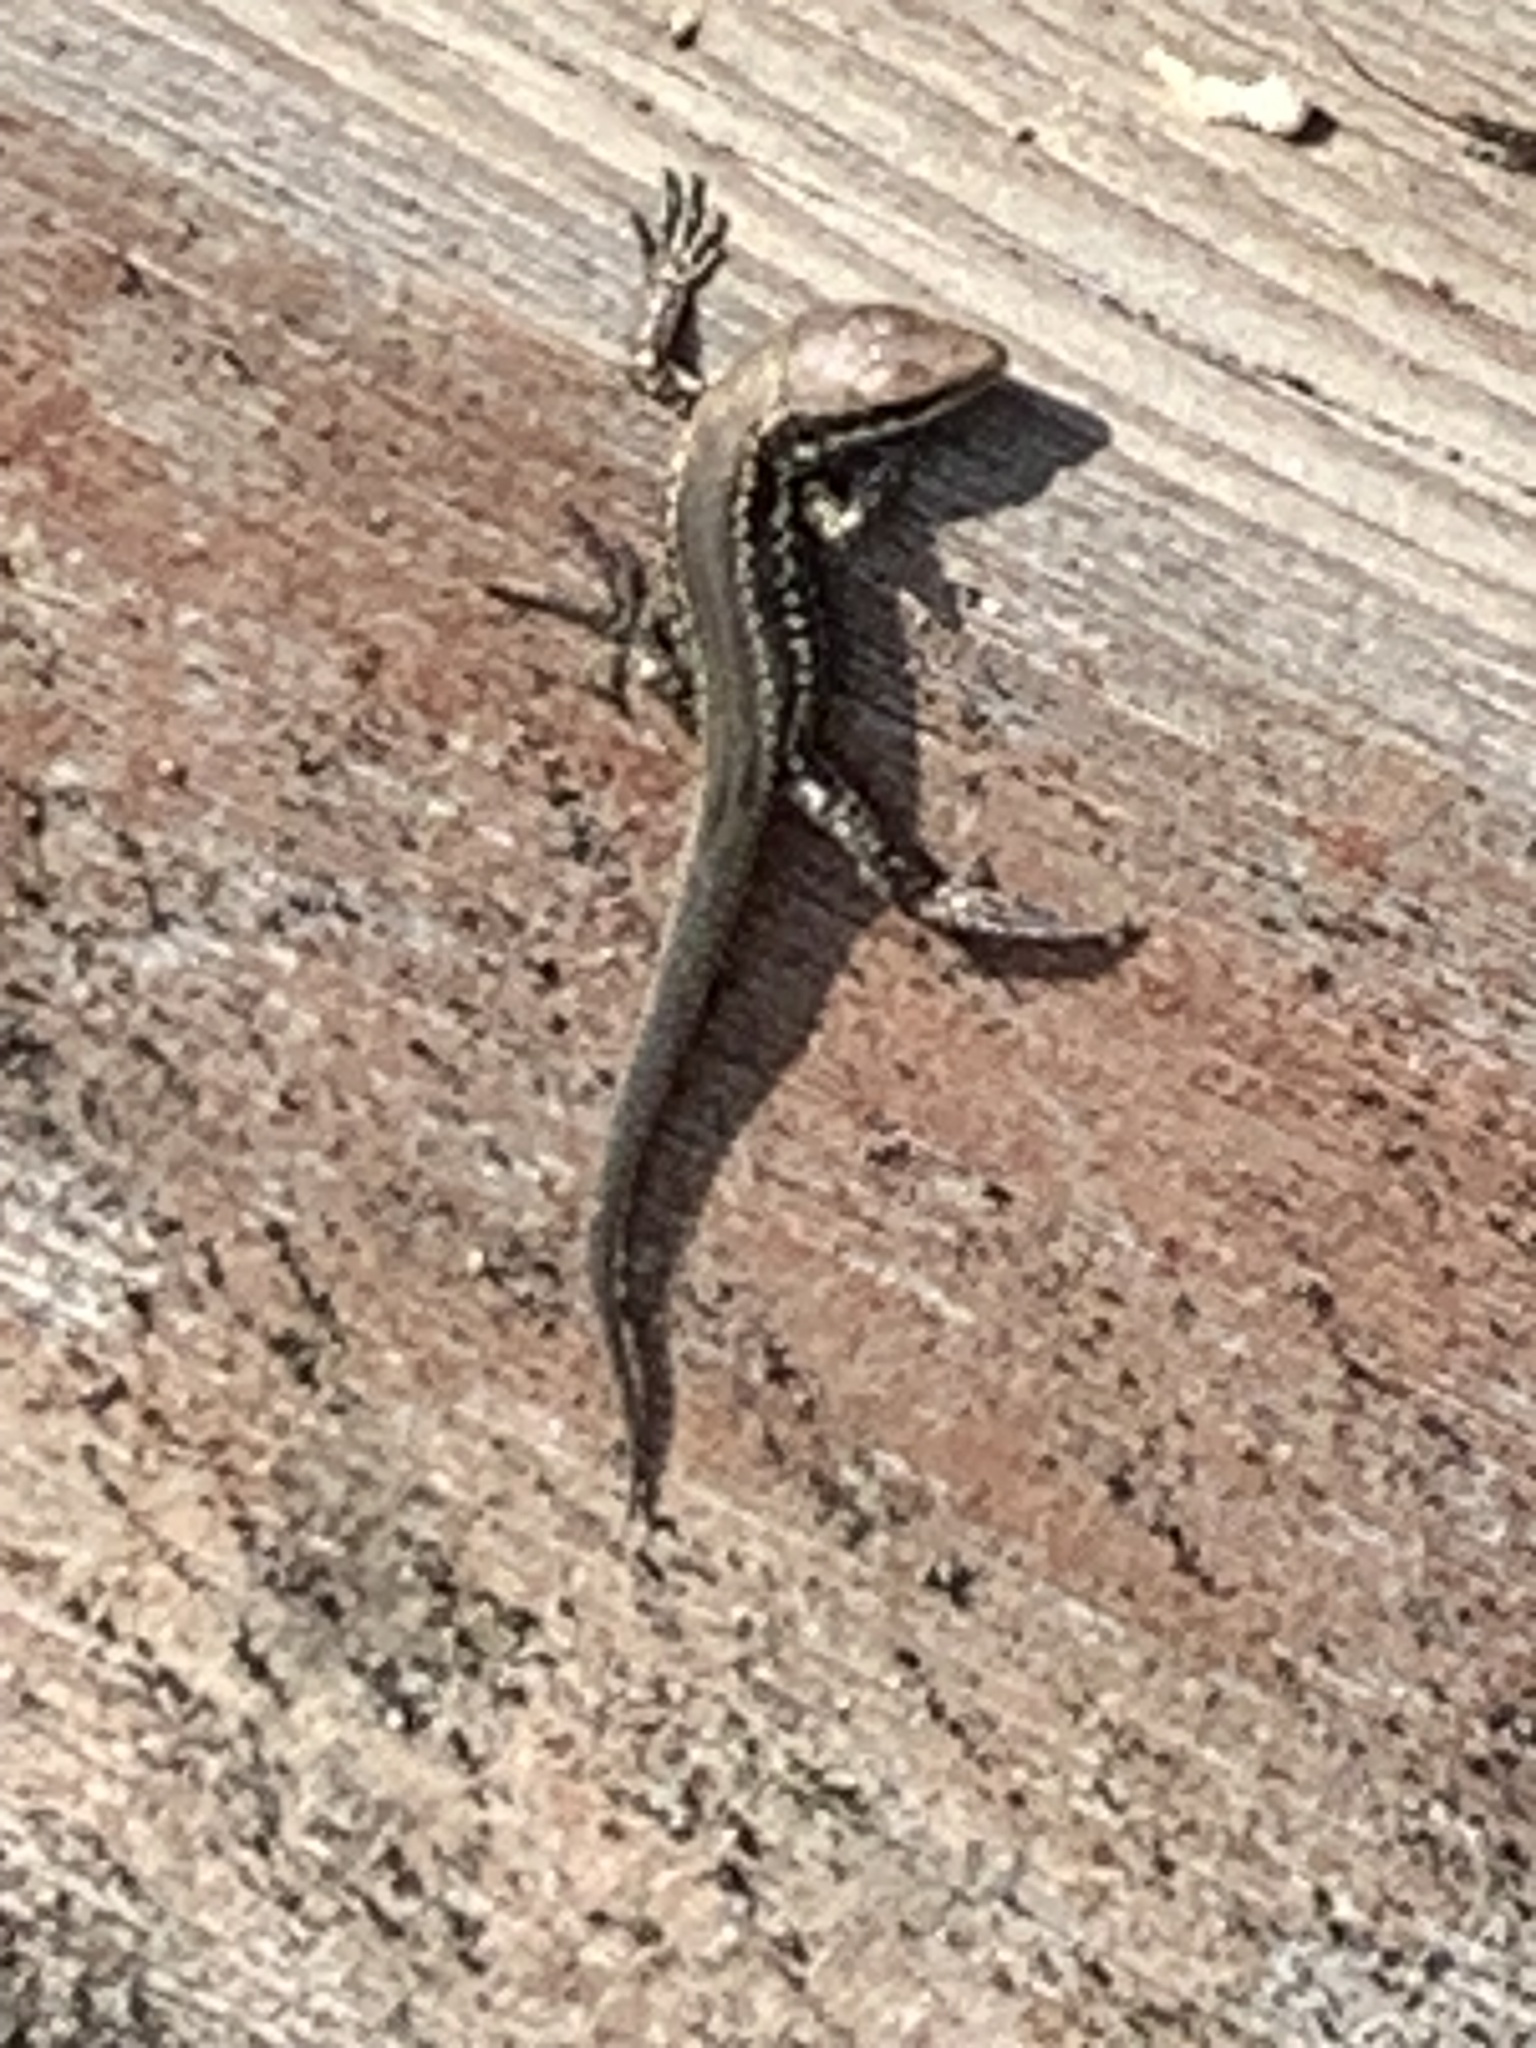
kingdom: Animalia
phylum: Chordata
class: Squamata
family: Lacertidae
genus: Podarcis
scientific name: Podarcis muralis
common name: Common wall lizard
